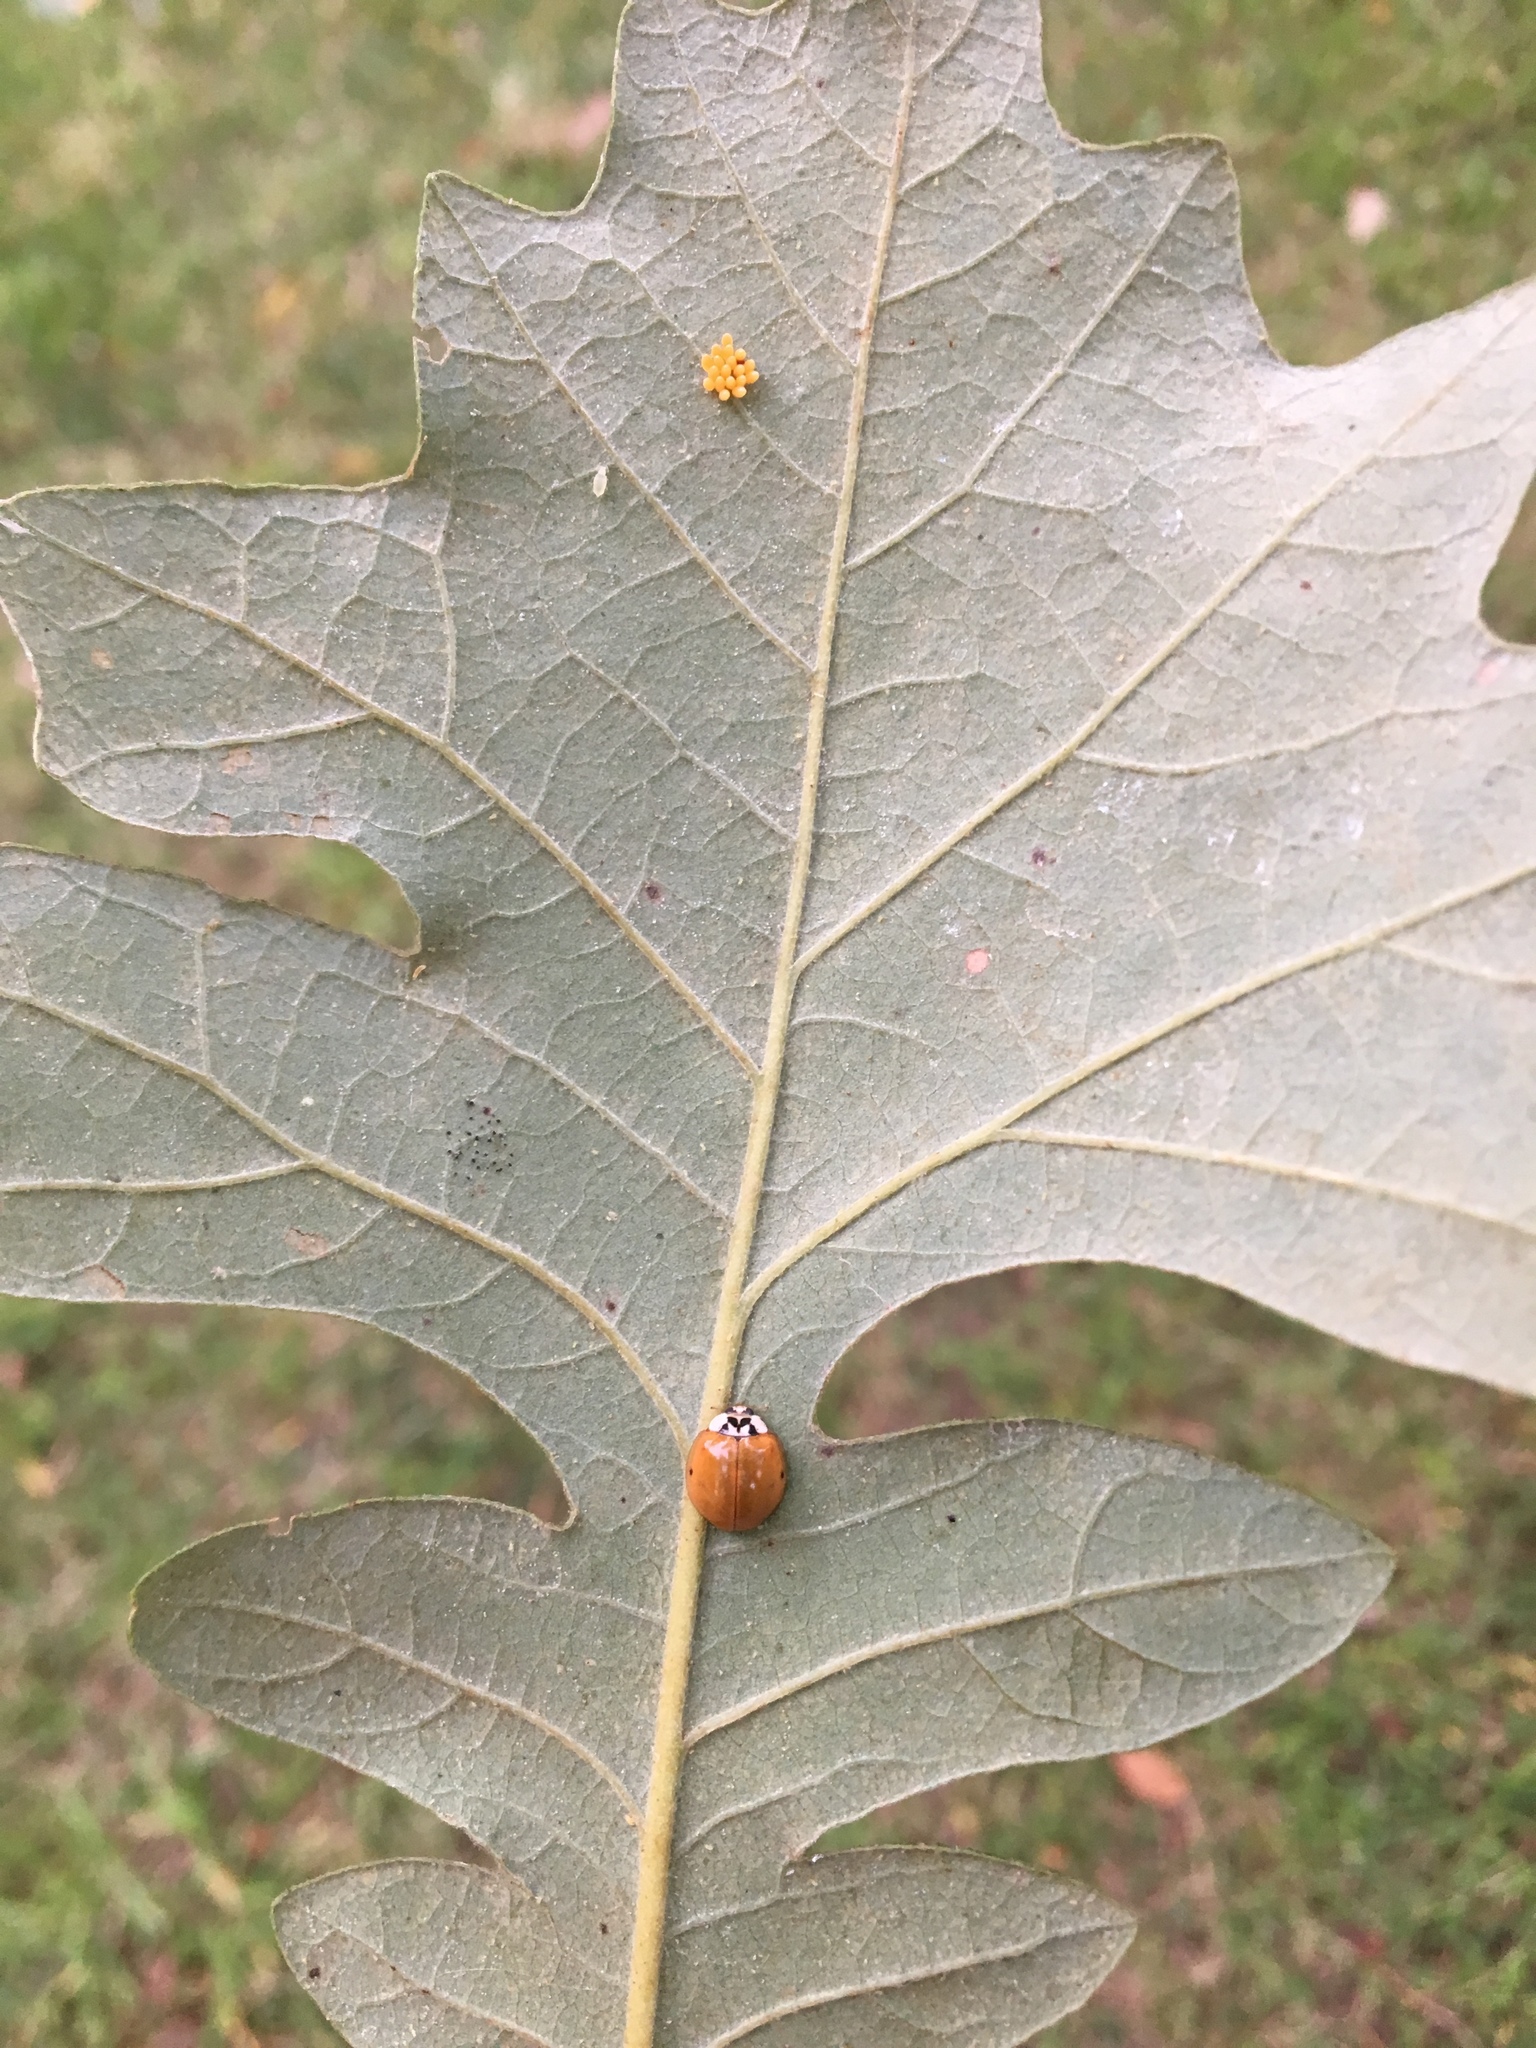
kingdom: Animalia
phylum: Arthropoda
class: Insecta
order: Coleoptera
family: Coccinellidae
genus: Harmonia
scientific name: Harmonia axyridis
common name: Harlequin ladybird
